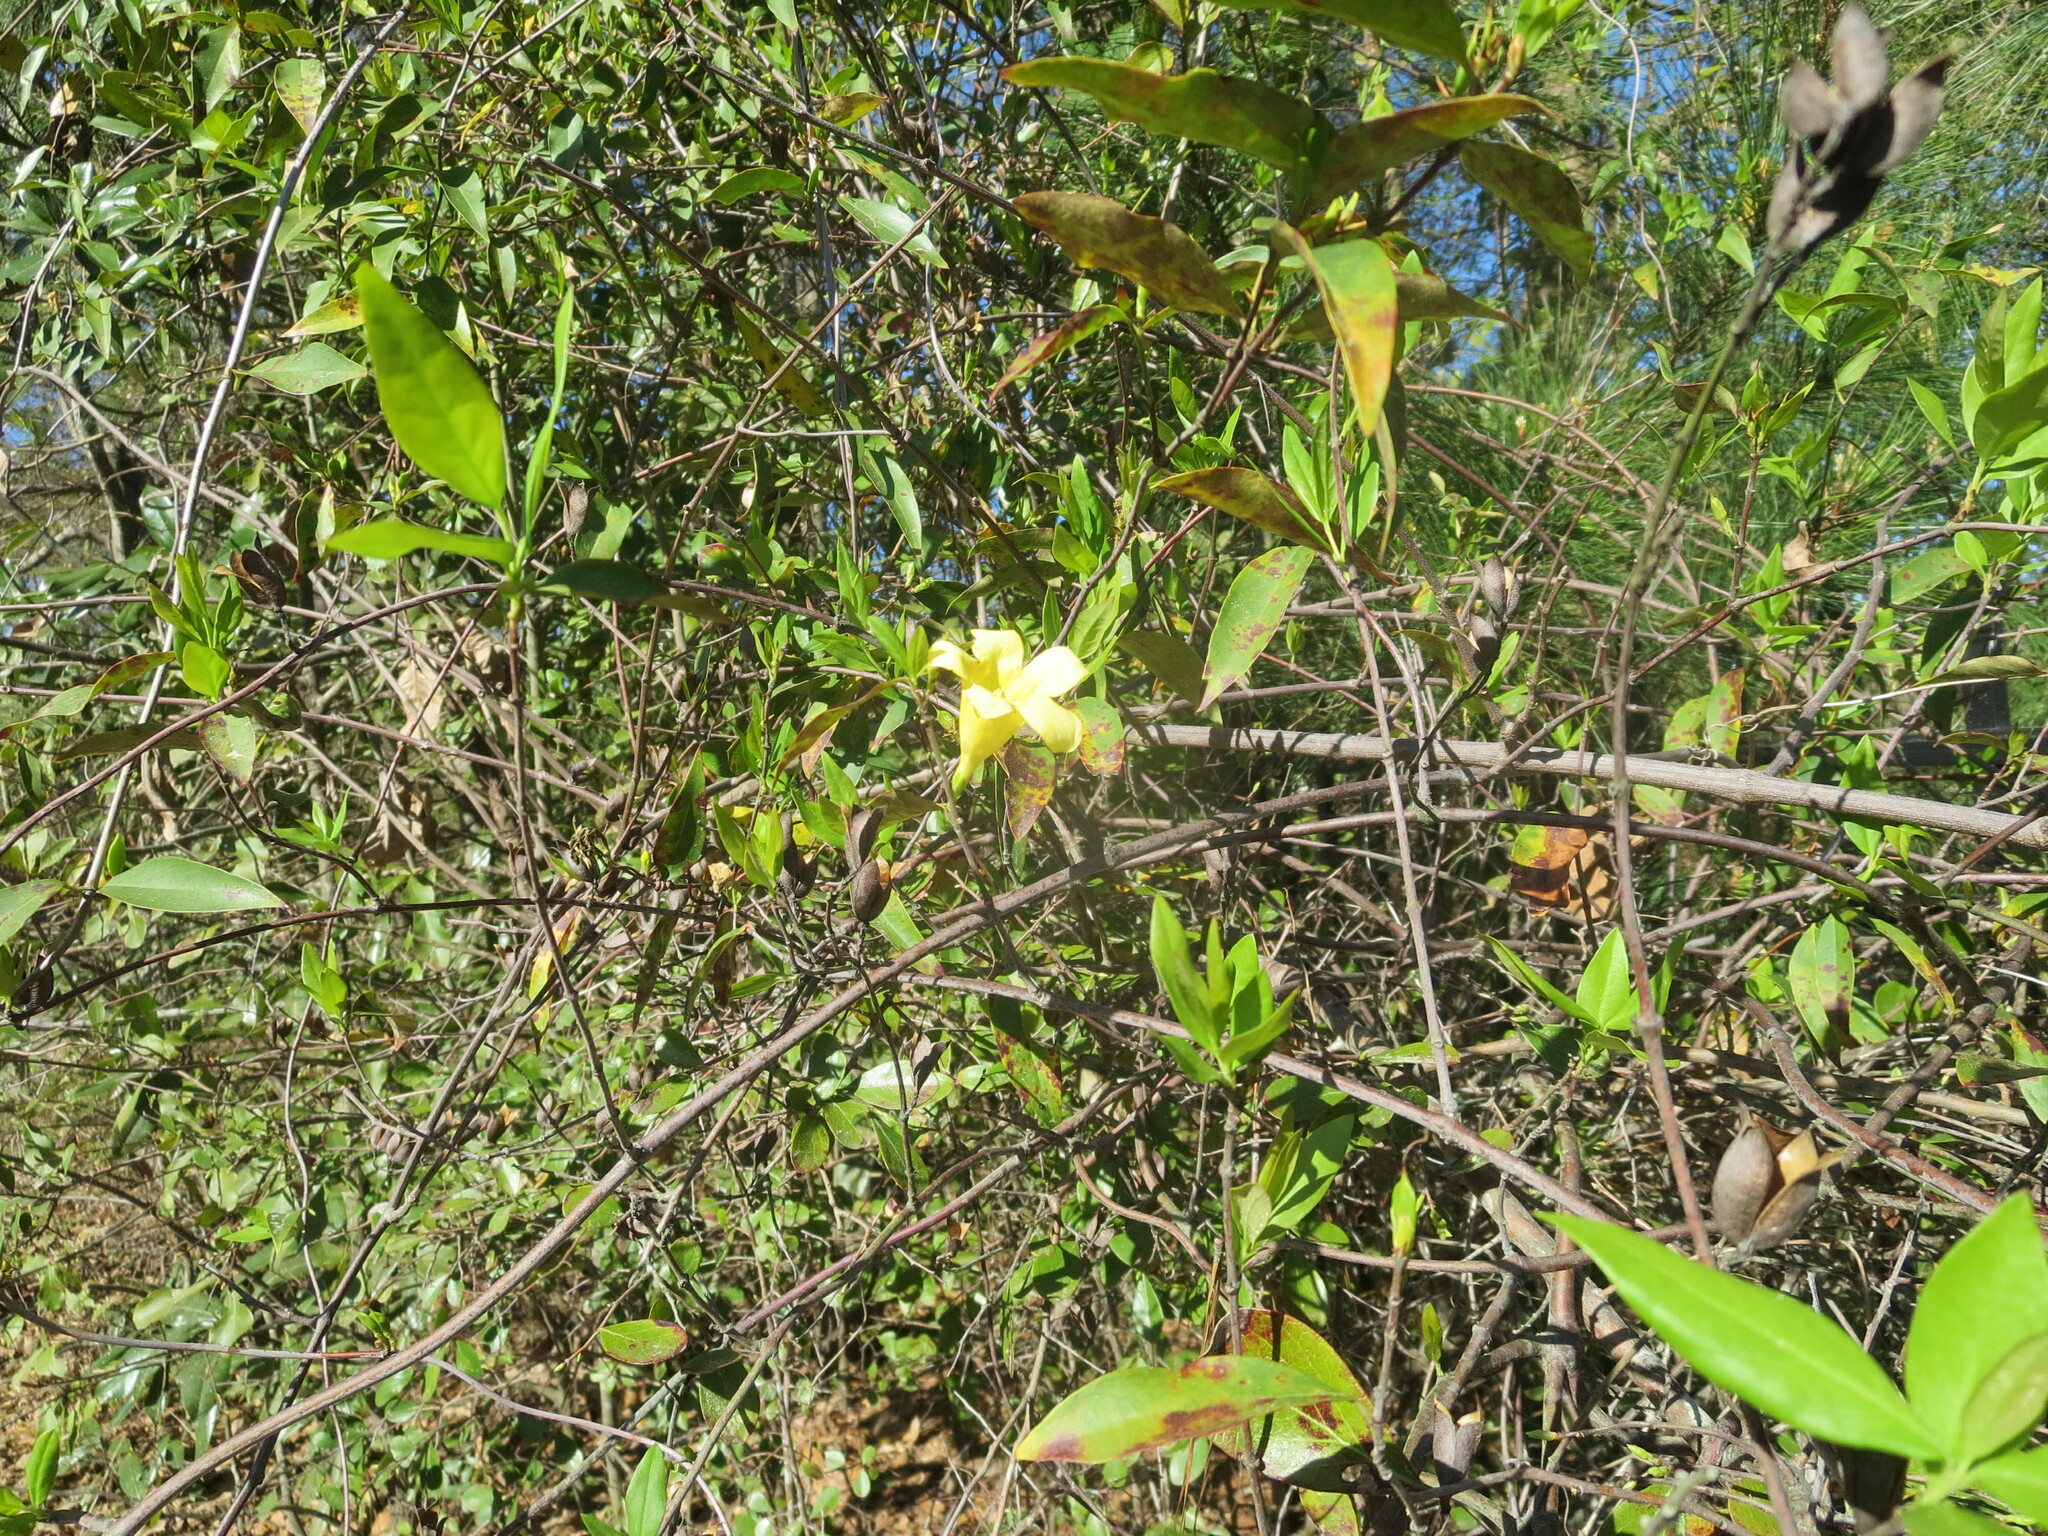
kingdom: Plantae
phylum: Tracheophyta
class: Magnoliopsida
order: Gentianales
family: Gelsemiaceae
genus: Gelsemium
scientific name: Gelsemium sempervirens
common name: Carolina-jasmine
